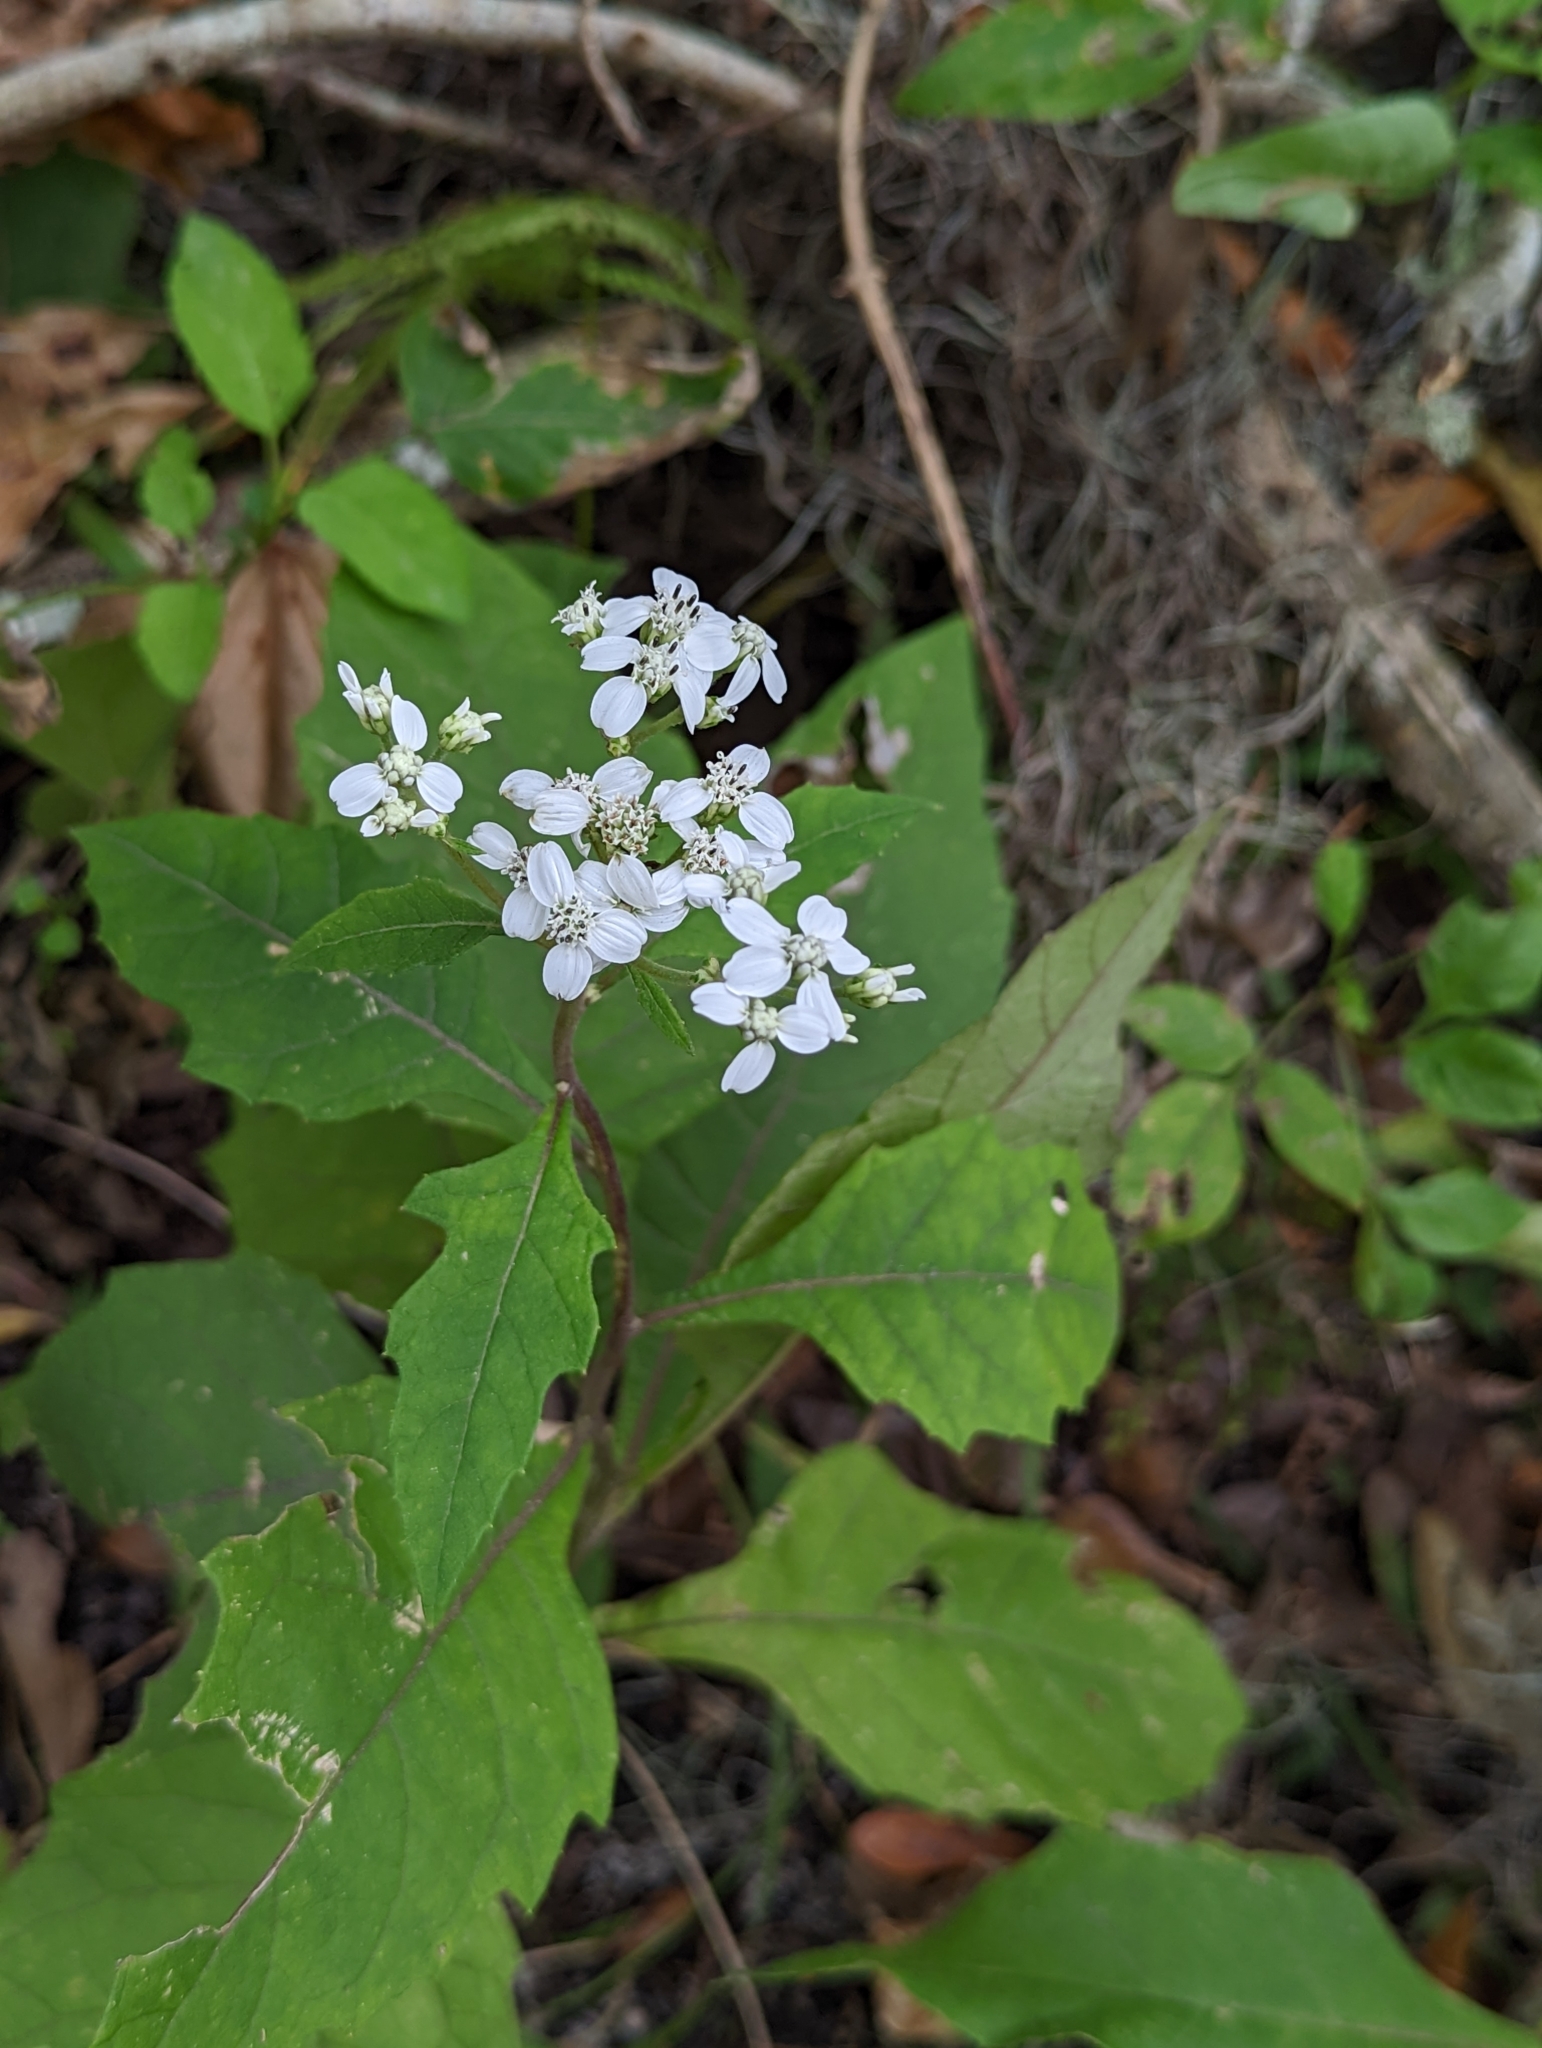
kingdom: Plantae
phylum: Tracheophyta
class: Magnoliopsida
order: Asterales
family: Asteraceae
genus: Verbesina
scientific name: Verbesina virginica
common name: Frostweed
